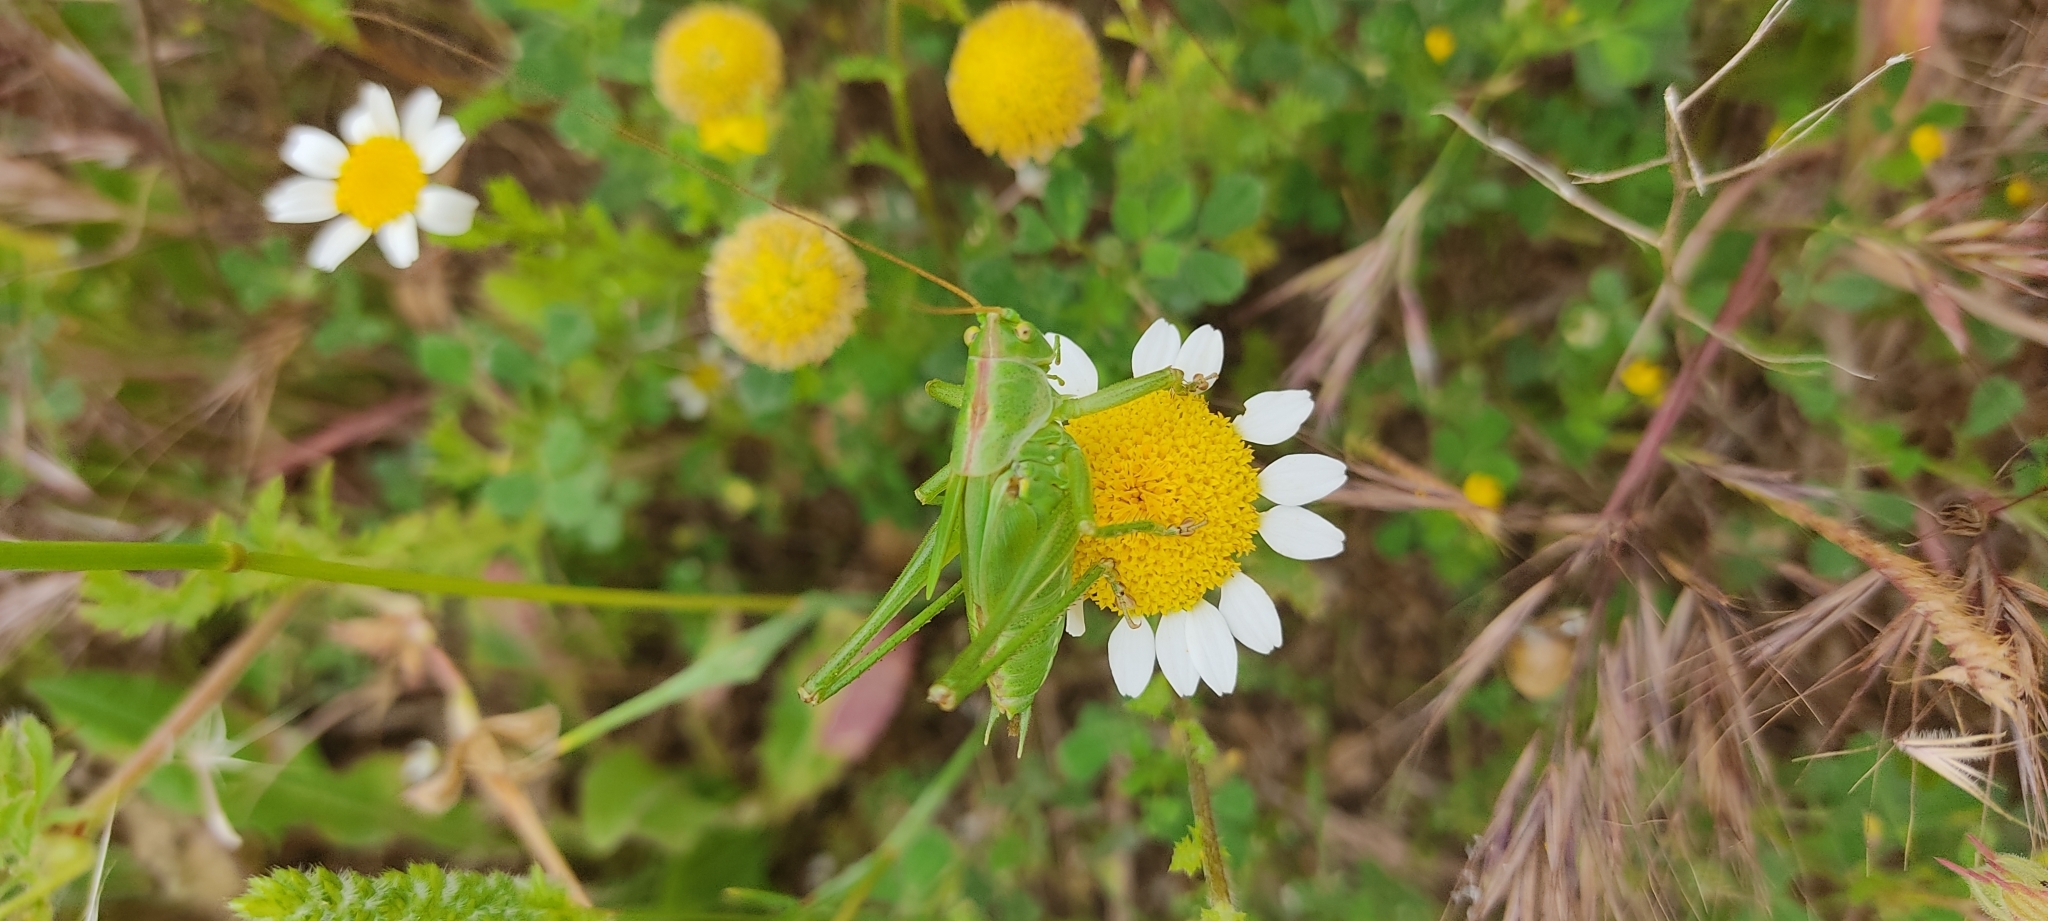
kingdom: Animalia
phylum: Arthropoda
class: Insecta
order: Orthoptera
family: Tettigoniidae
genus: Tettigonia
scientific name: Tettigonia viridissima
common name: Great green bush-cricket
